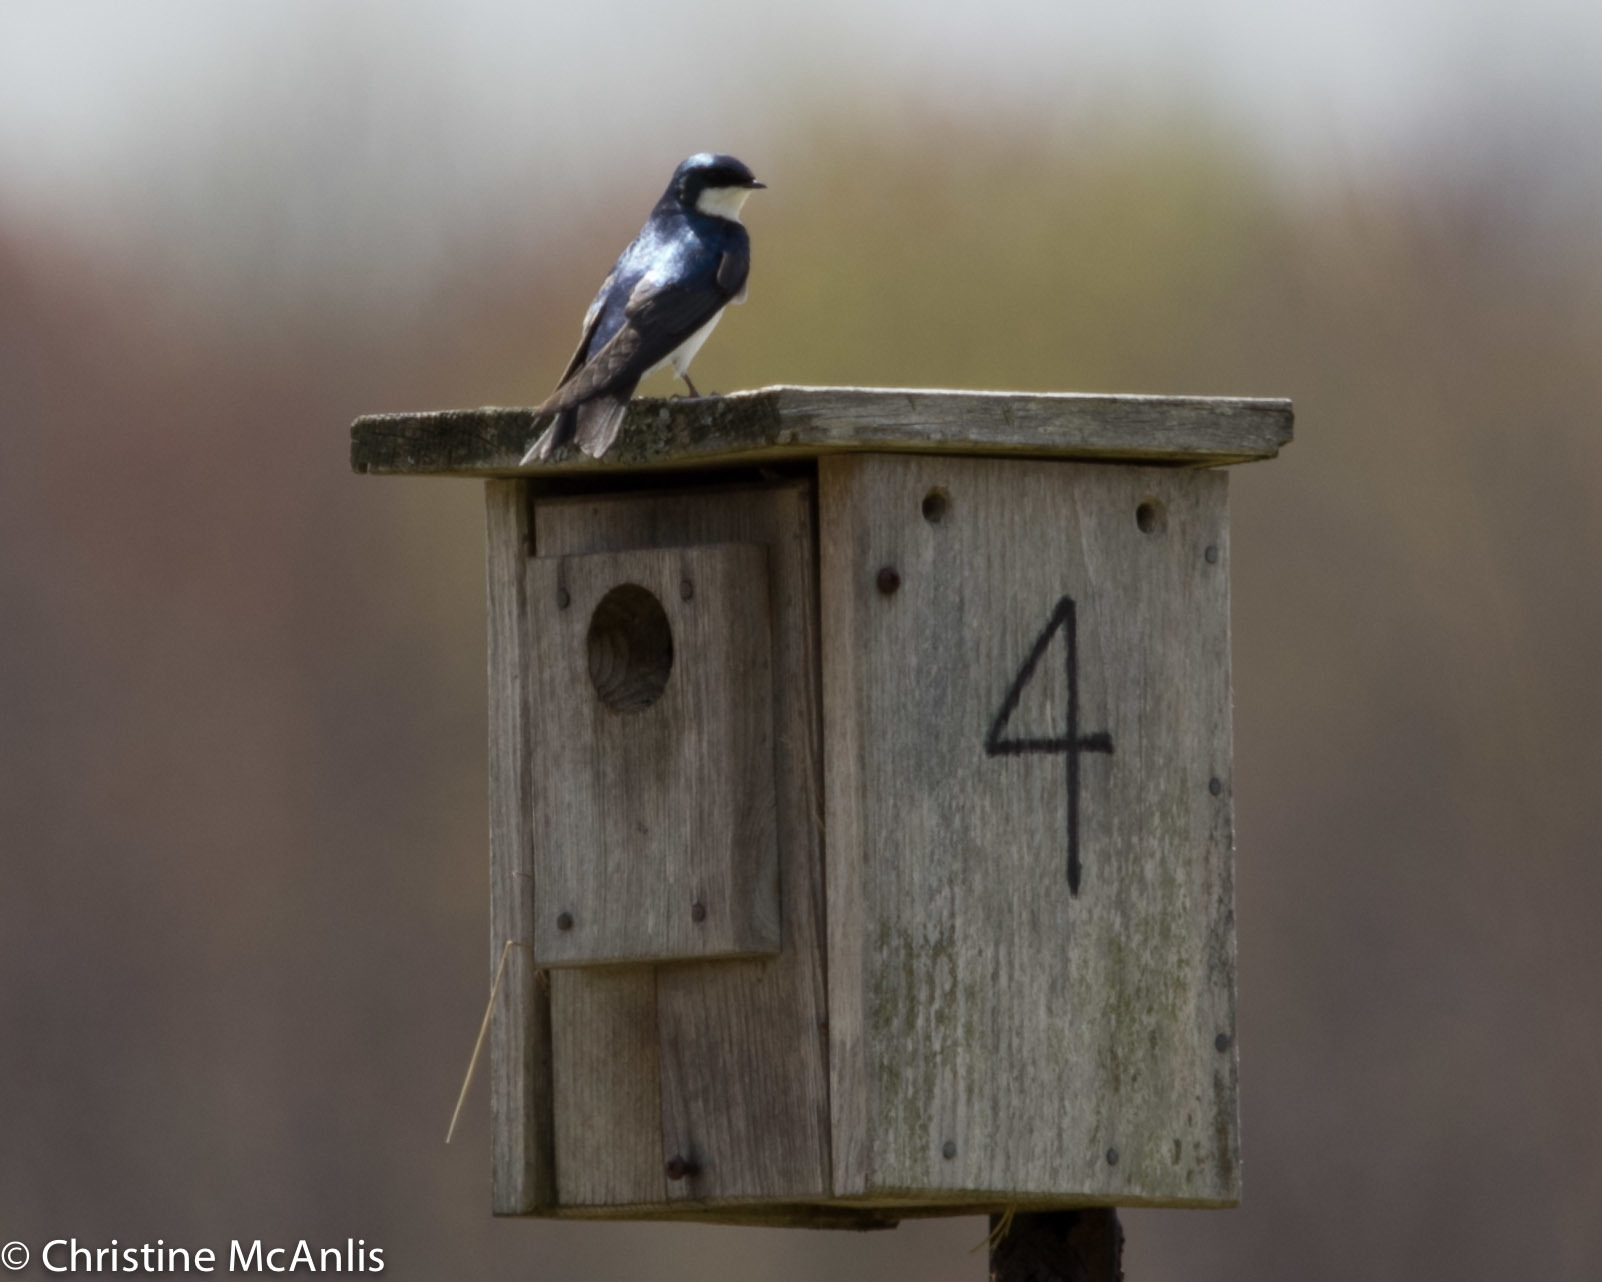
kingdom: Animalia
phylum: Chordata
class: Aves
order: Passeriformes
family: Hirundinidae
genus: Tachycineta
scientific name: Tachycineta bicolor
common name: Tree swallow
